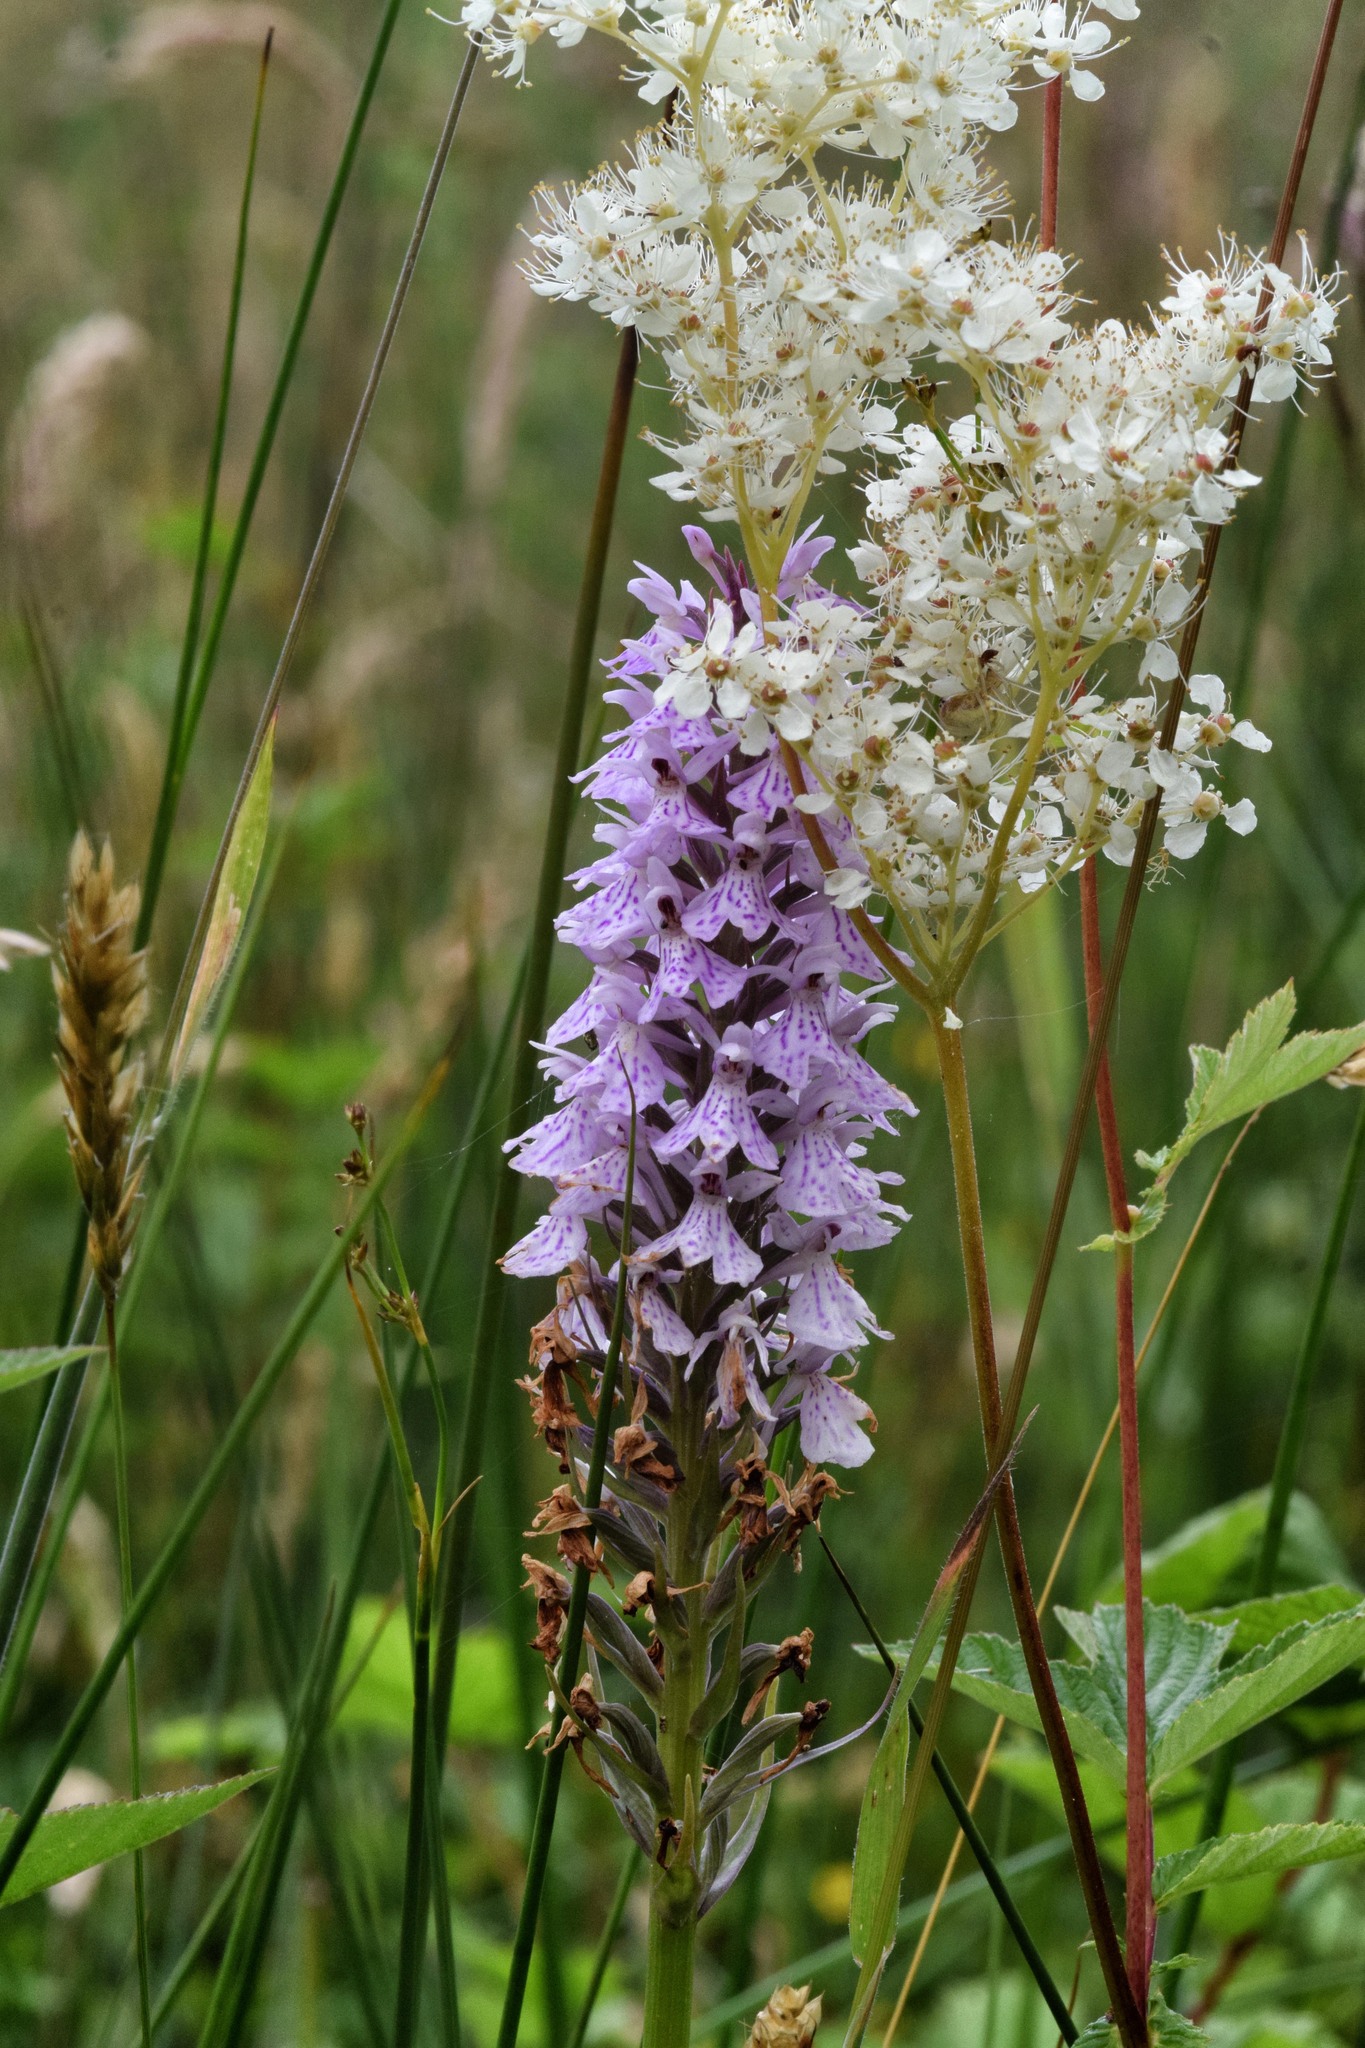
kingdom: Plantae
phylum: Tracheophyta
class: Liliopsida
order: Asparagales
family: Orchidaceae
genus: Dactylorhiza
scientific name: Dactylorhiza maculata
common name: Heath spotted-orchid
